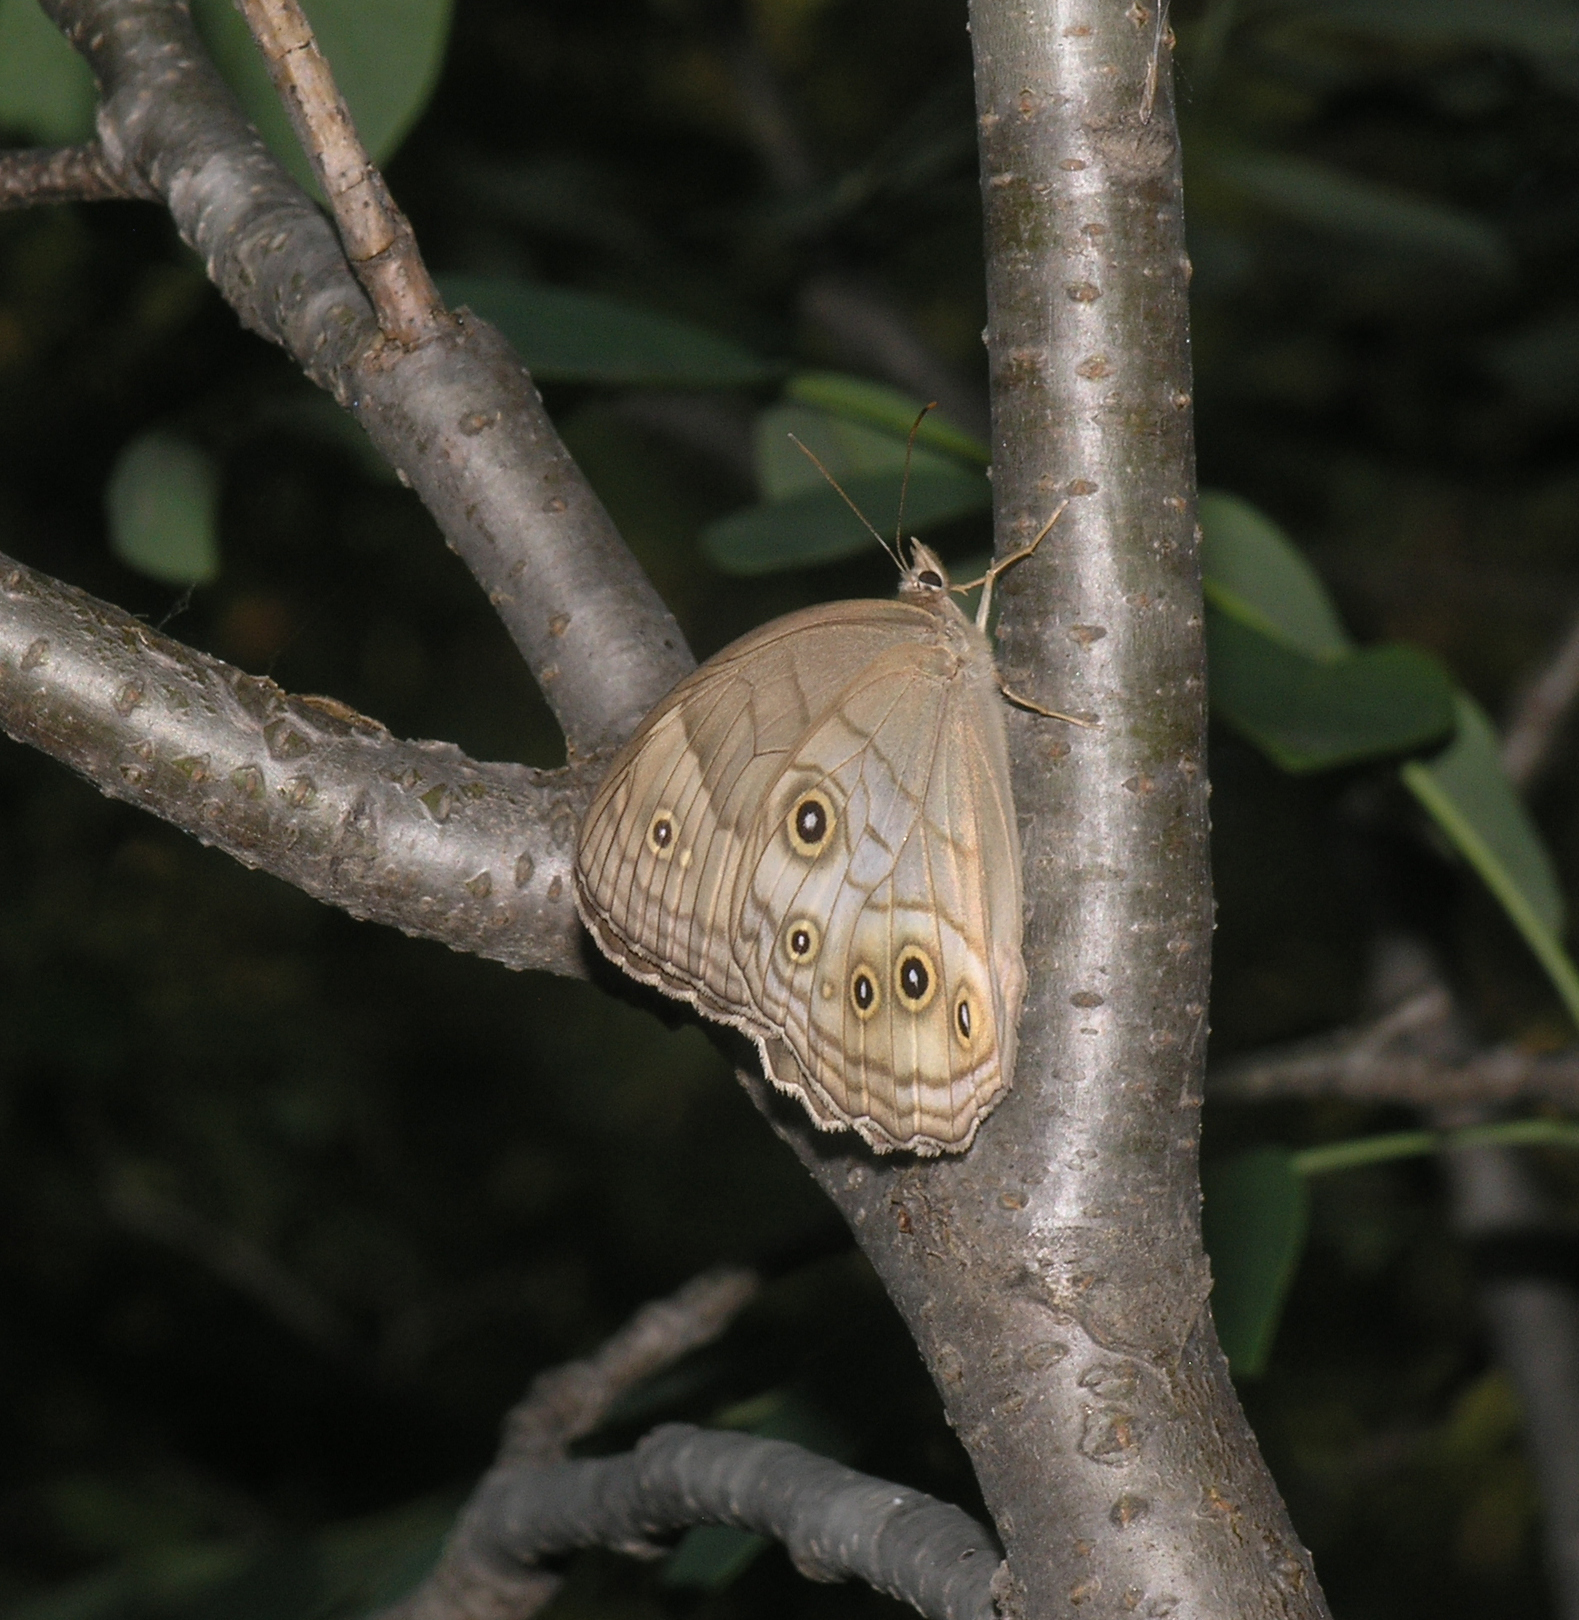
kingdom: Animalia
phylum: Arthropoda
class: Insecta
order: Lepidoptera
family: Nymphalidae
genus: Ninguta
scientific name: Ninguta schrenckii
